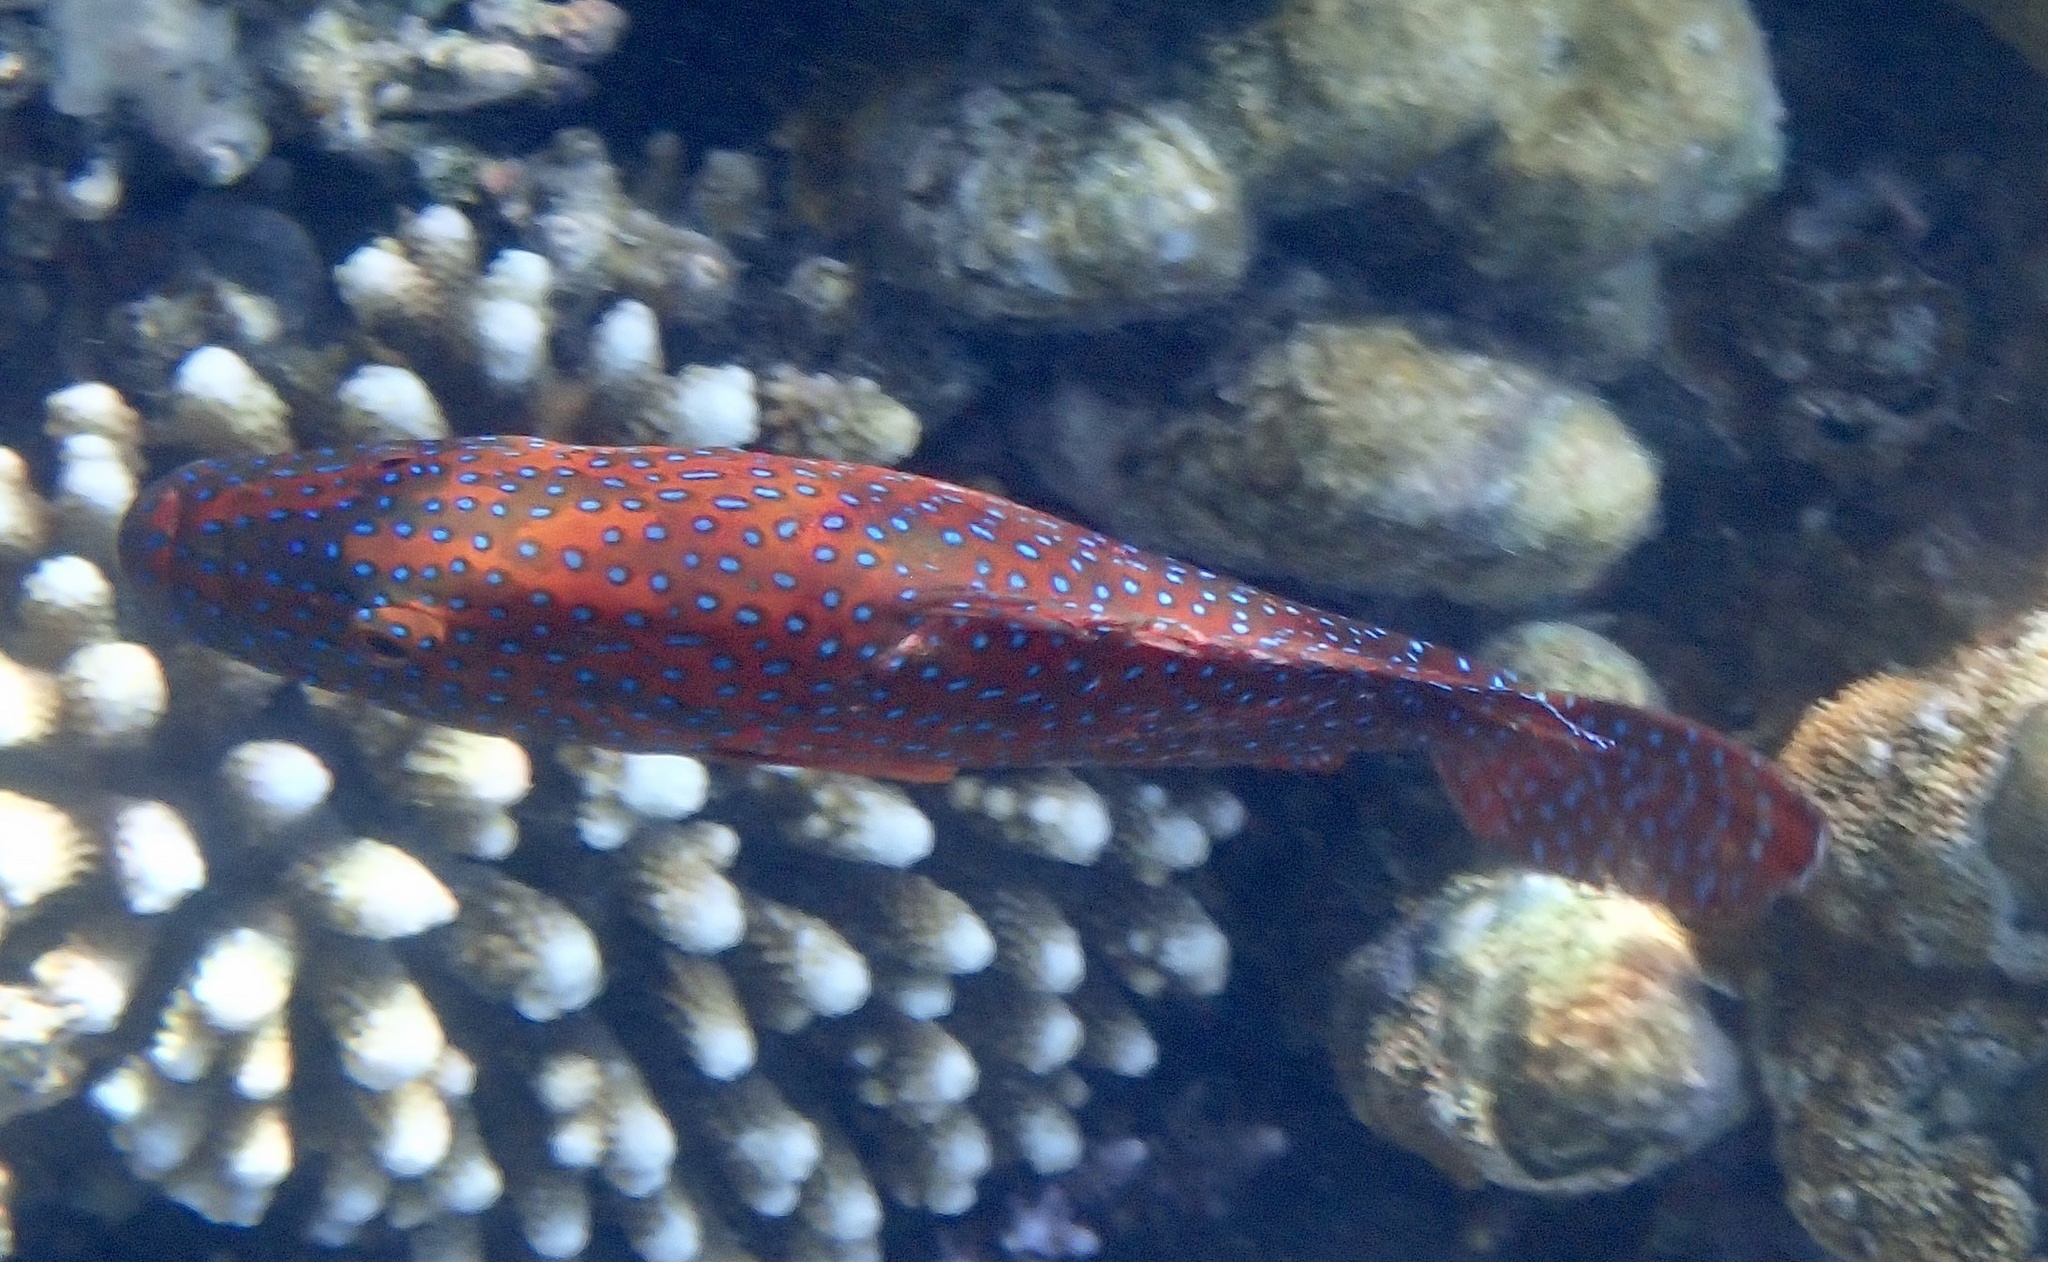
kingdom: Animalia
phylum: Chordata
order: Perciformes
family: Serranidae
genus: Cephalopholis
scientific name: Cephalopholis miniata
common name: Coral hind
